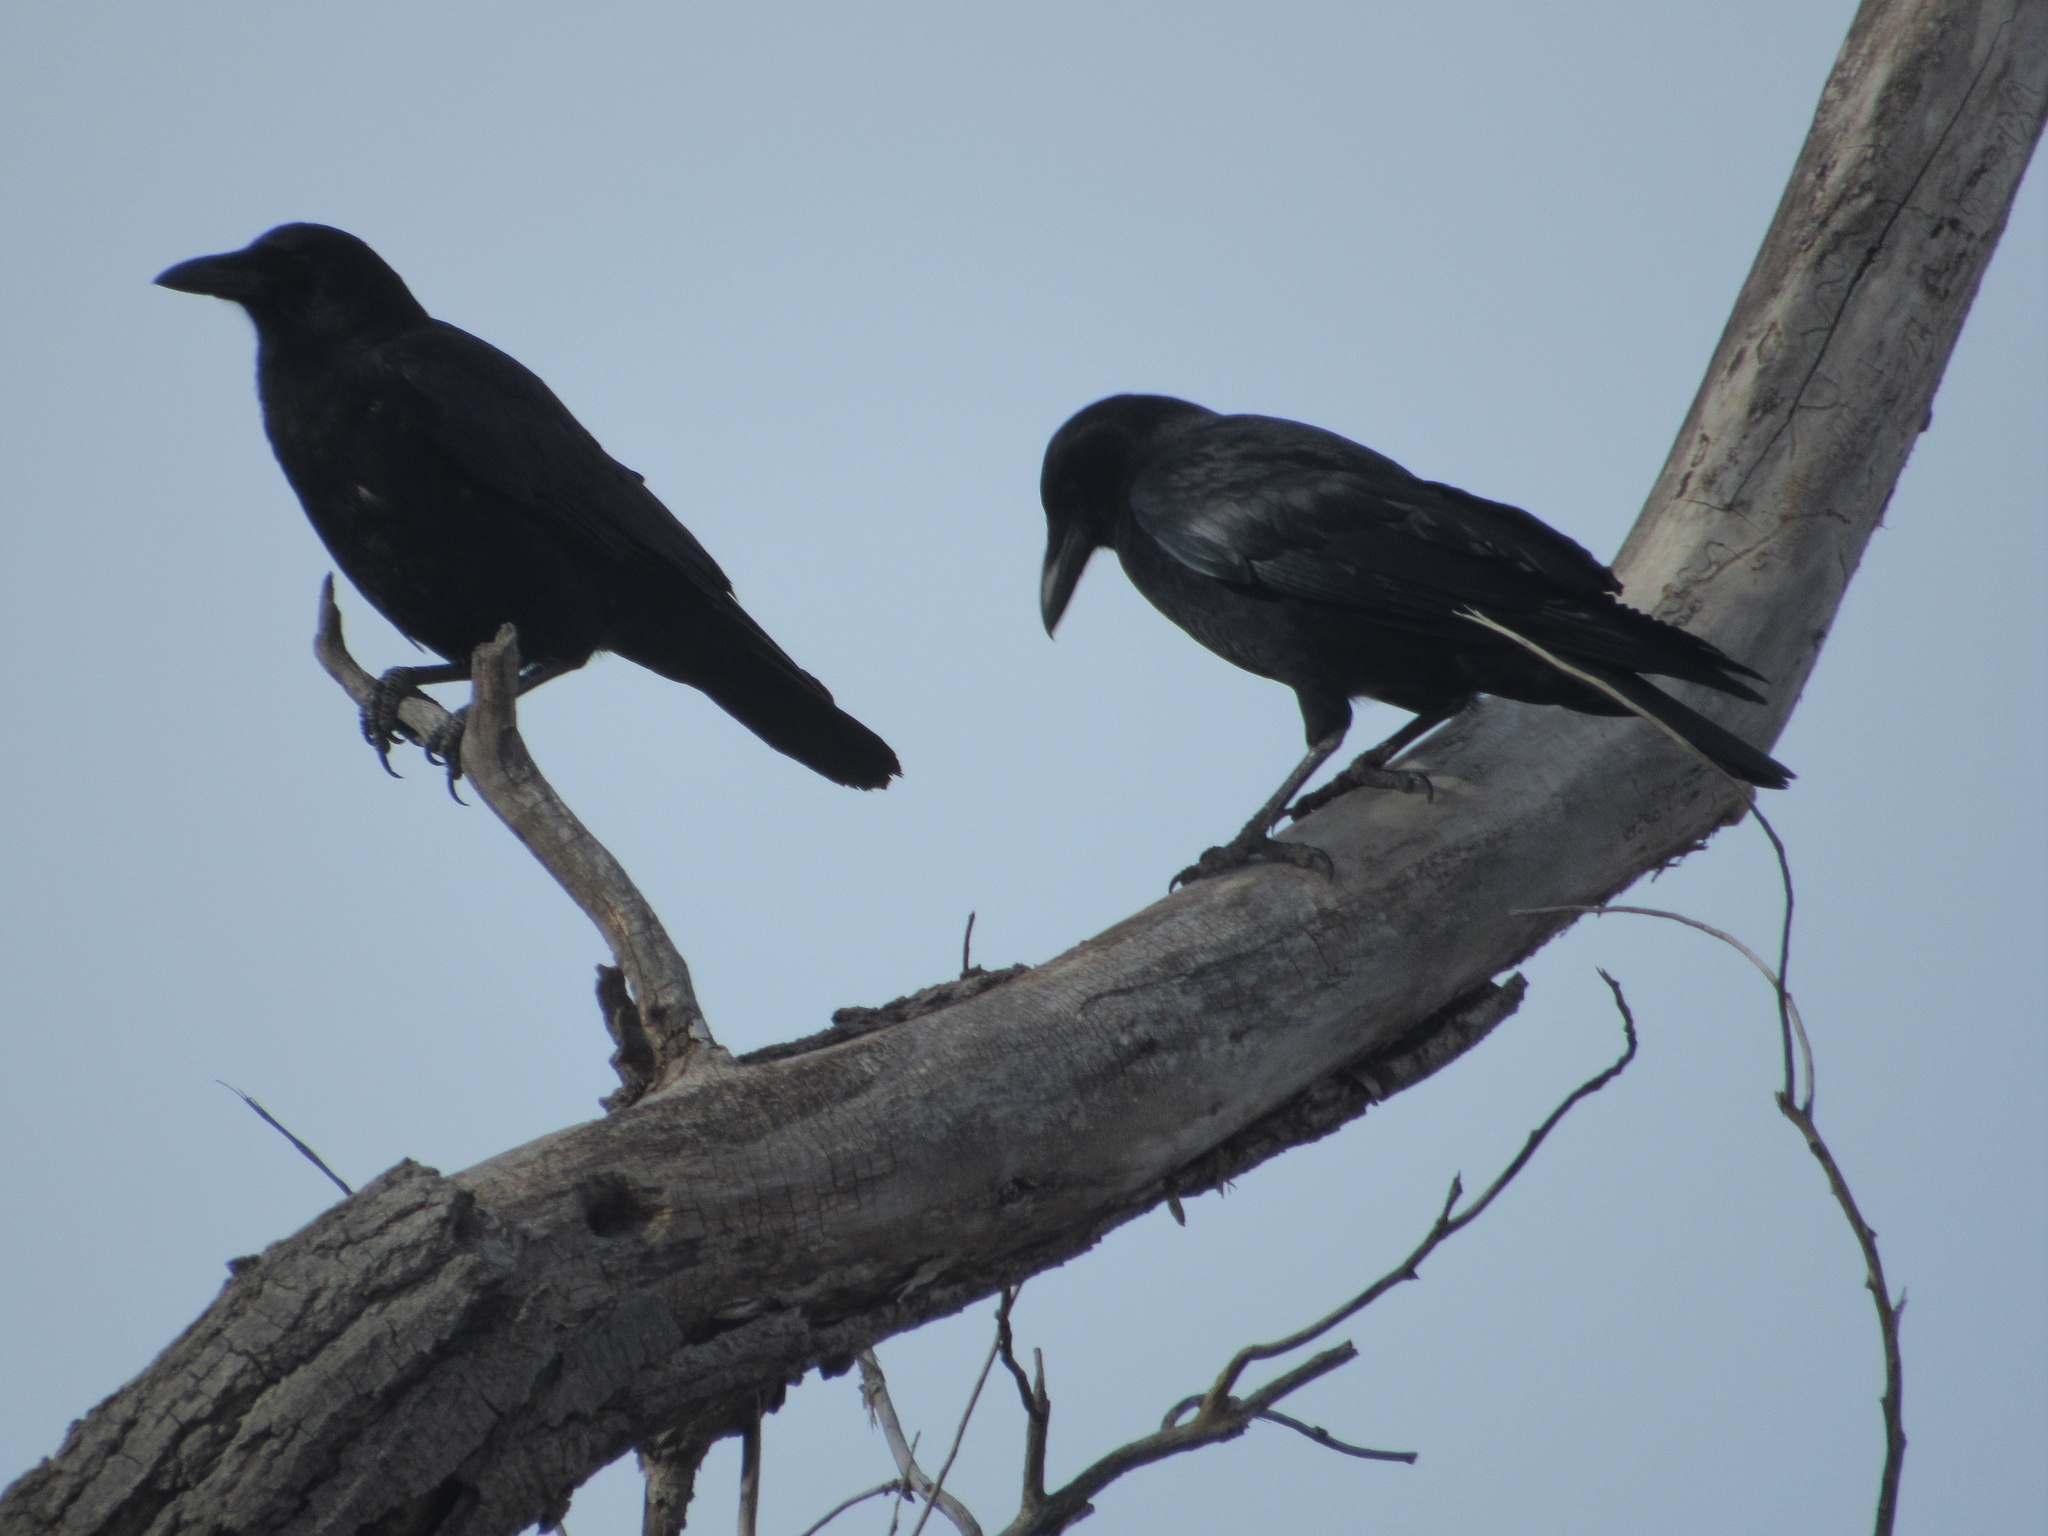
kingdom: Animalia
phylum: Chordata
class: Aves
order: Passeriformes
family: Corvidae
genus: Corvus
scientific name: Corvus brachyrhynchos
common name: American crow
